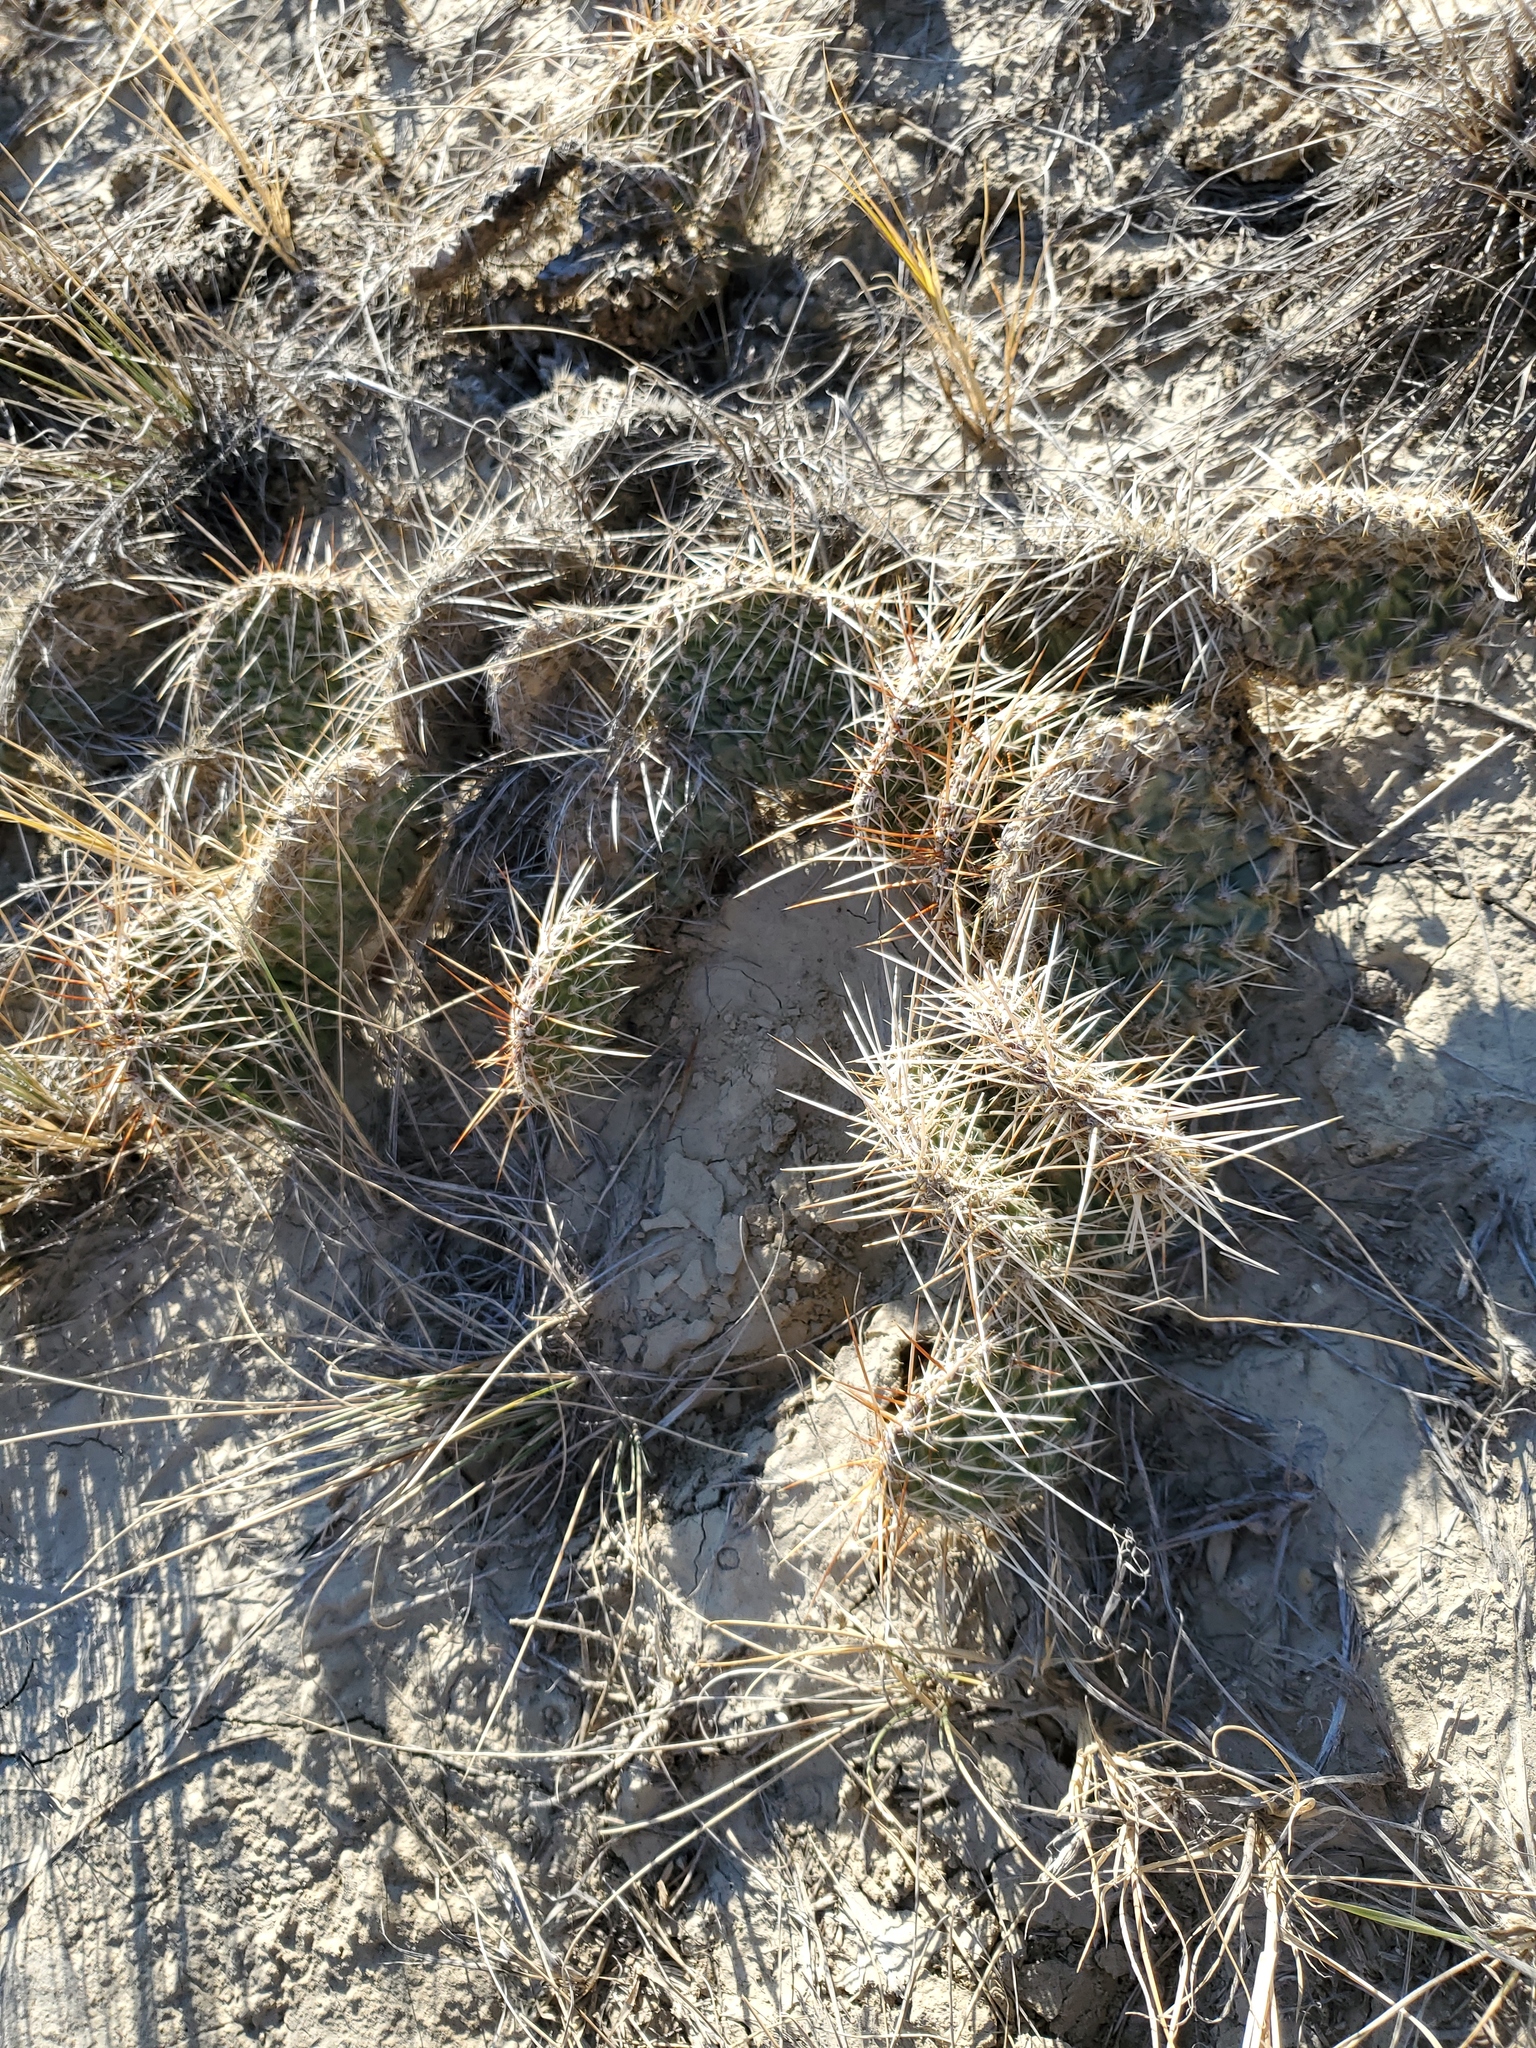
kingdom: Plantae
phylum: Tracheophyta
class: Magnoliopsida
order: Caryophyllales
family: Cactaceae
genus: Opuntia
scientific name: Opuntia polyacantha
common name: Plains prickly-pear
